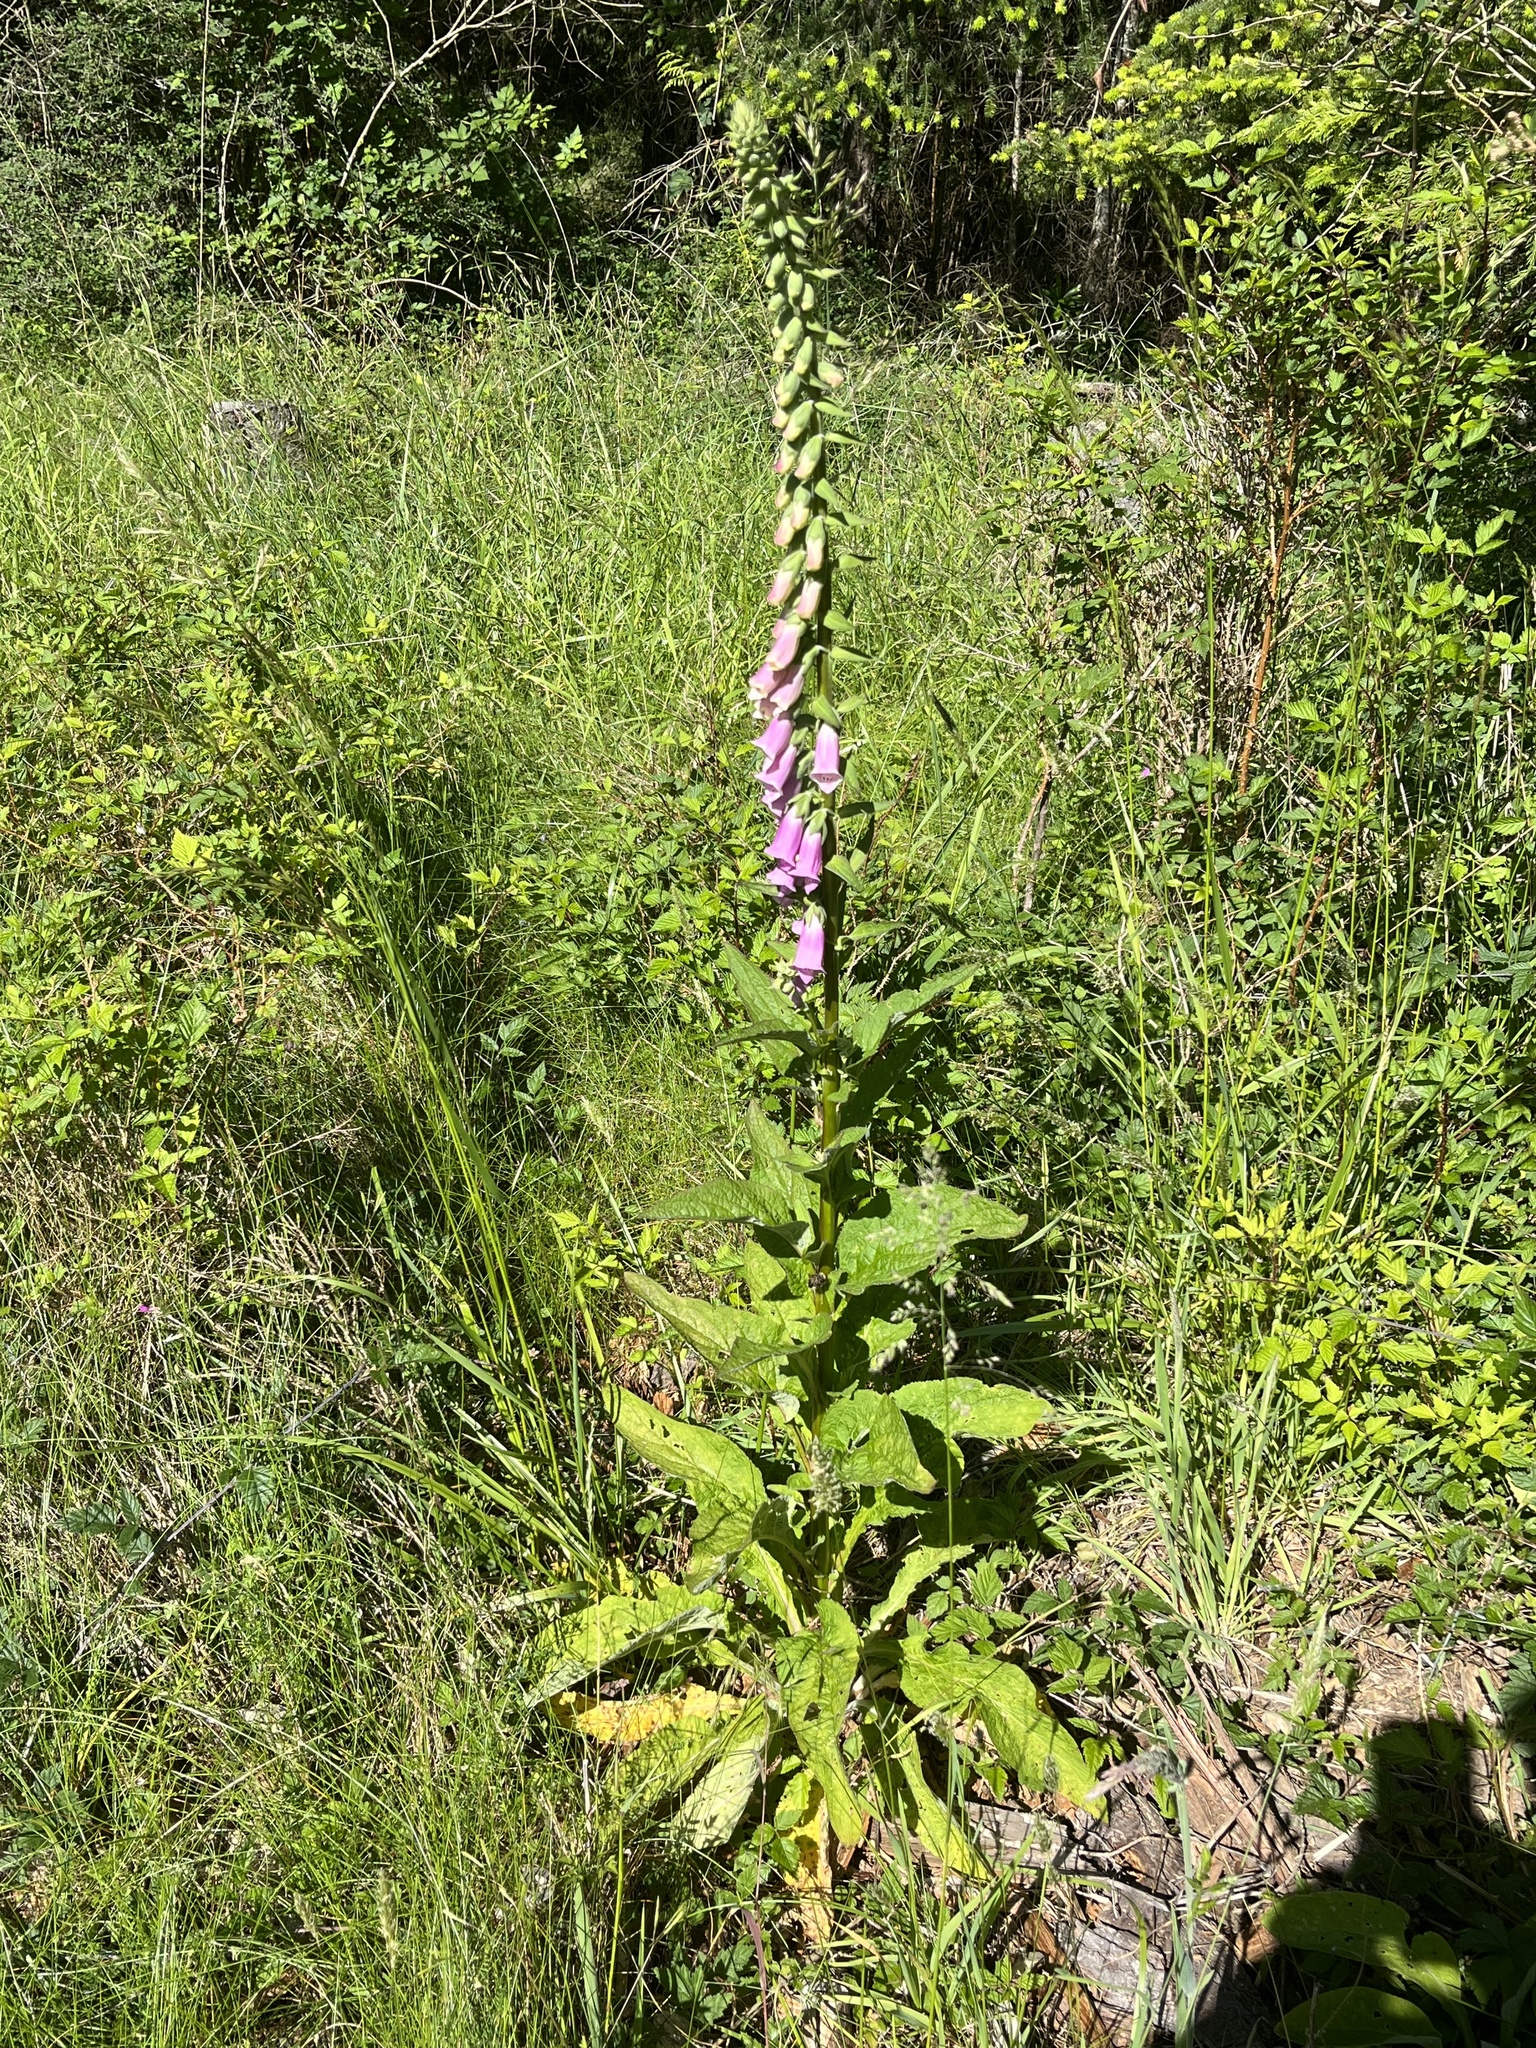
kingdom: Plantae
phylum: Tracheophyta
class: Magnoliopsida
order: Lamiales
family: Plantaginaceae
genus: Digitalis
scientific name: Digitalis purpurea
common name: Foxglove
